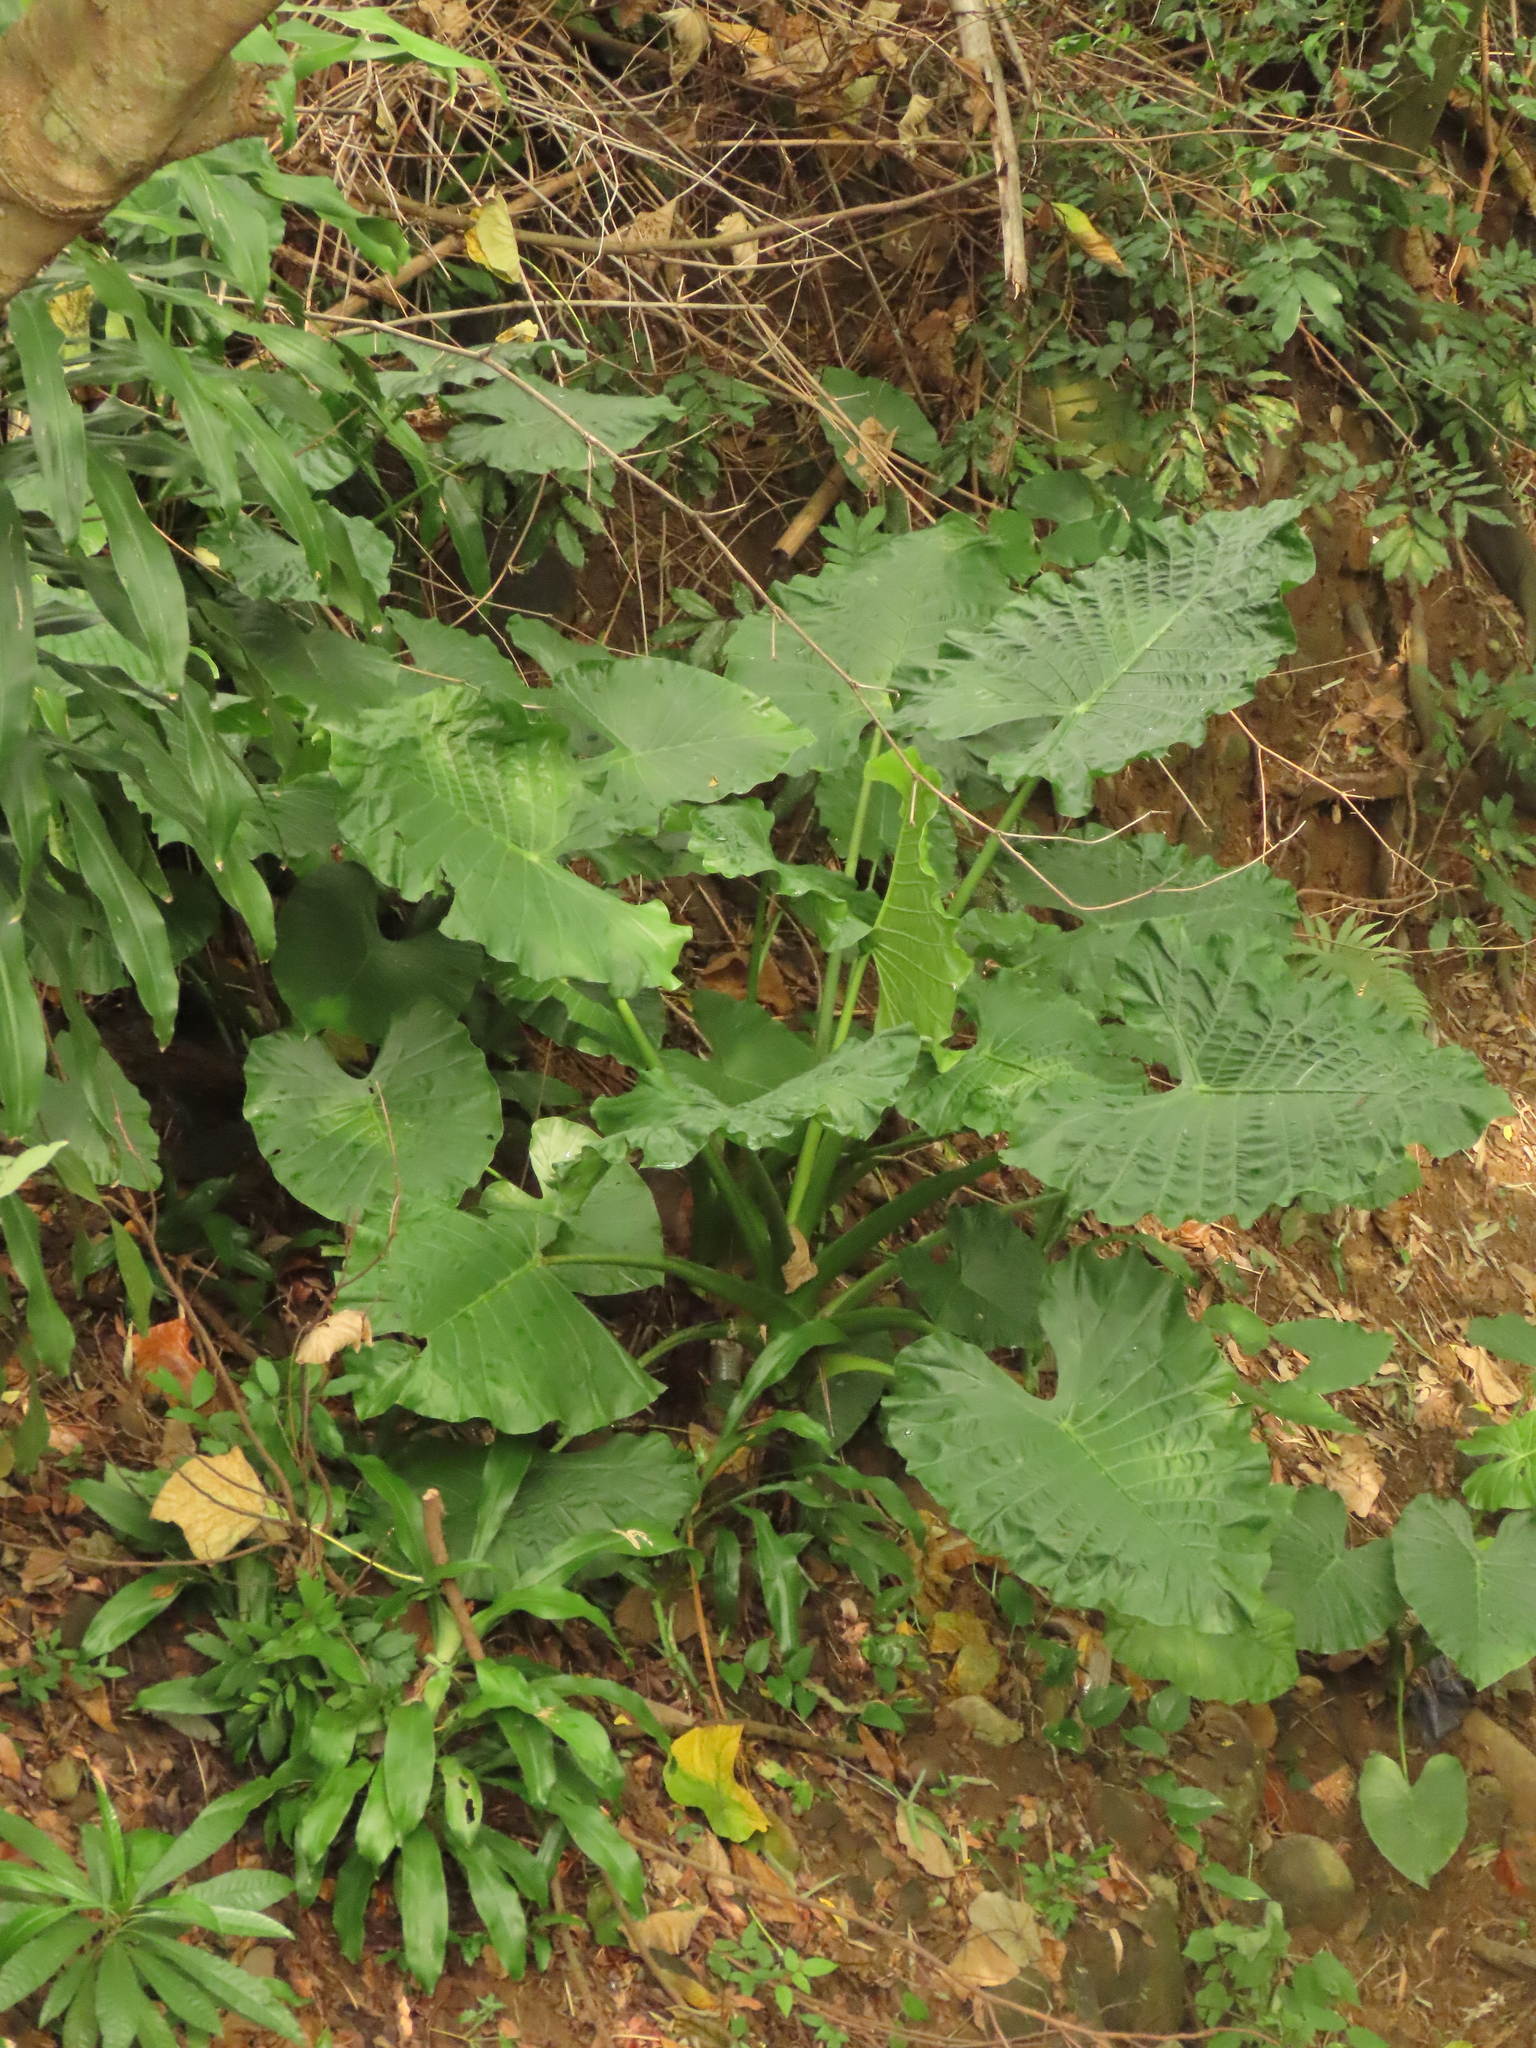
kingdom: Plantae
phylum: Tracheophyta
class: Liliopsida
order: Alismatales
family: Araceae
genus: Alocasia
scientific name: Alocasia odora
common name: Asian taro
